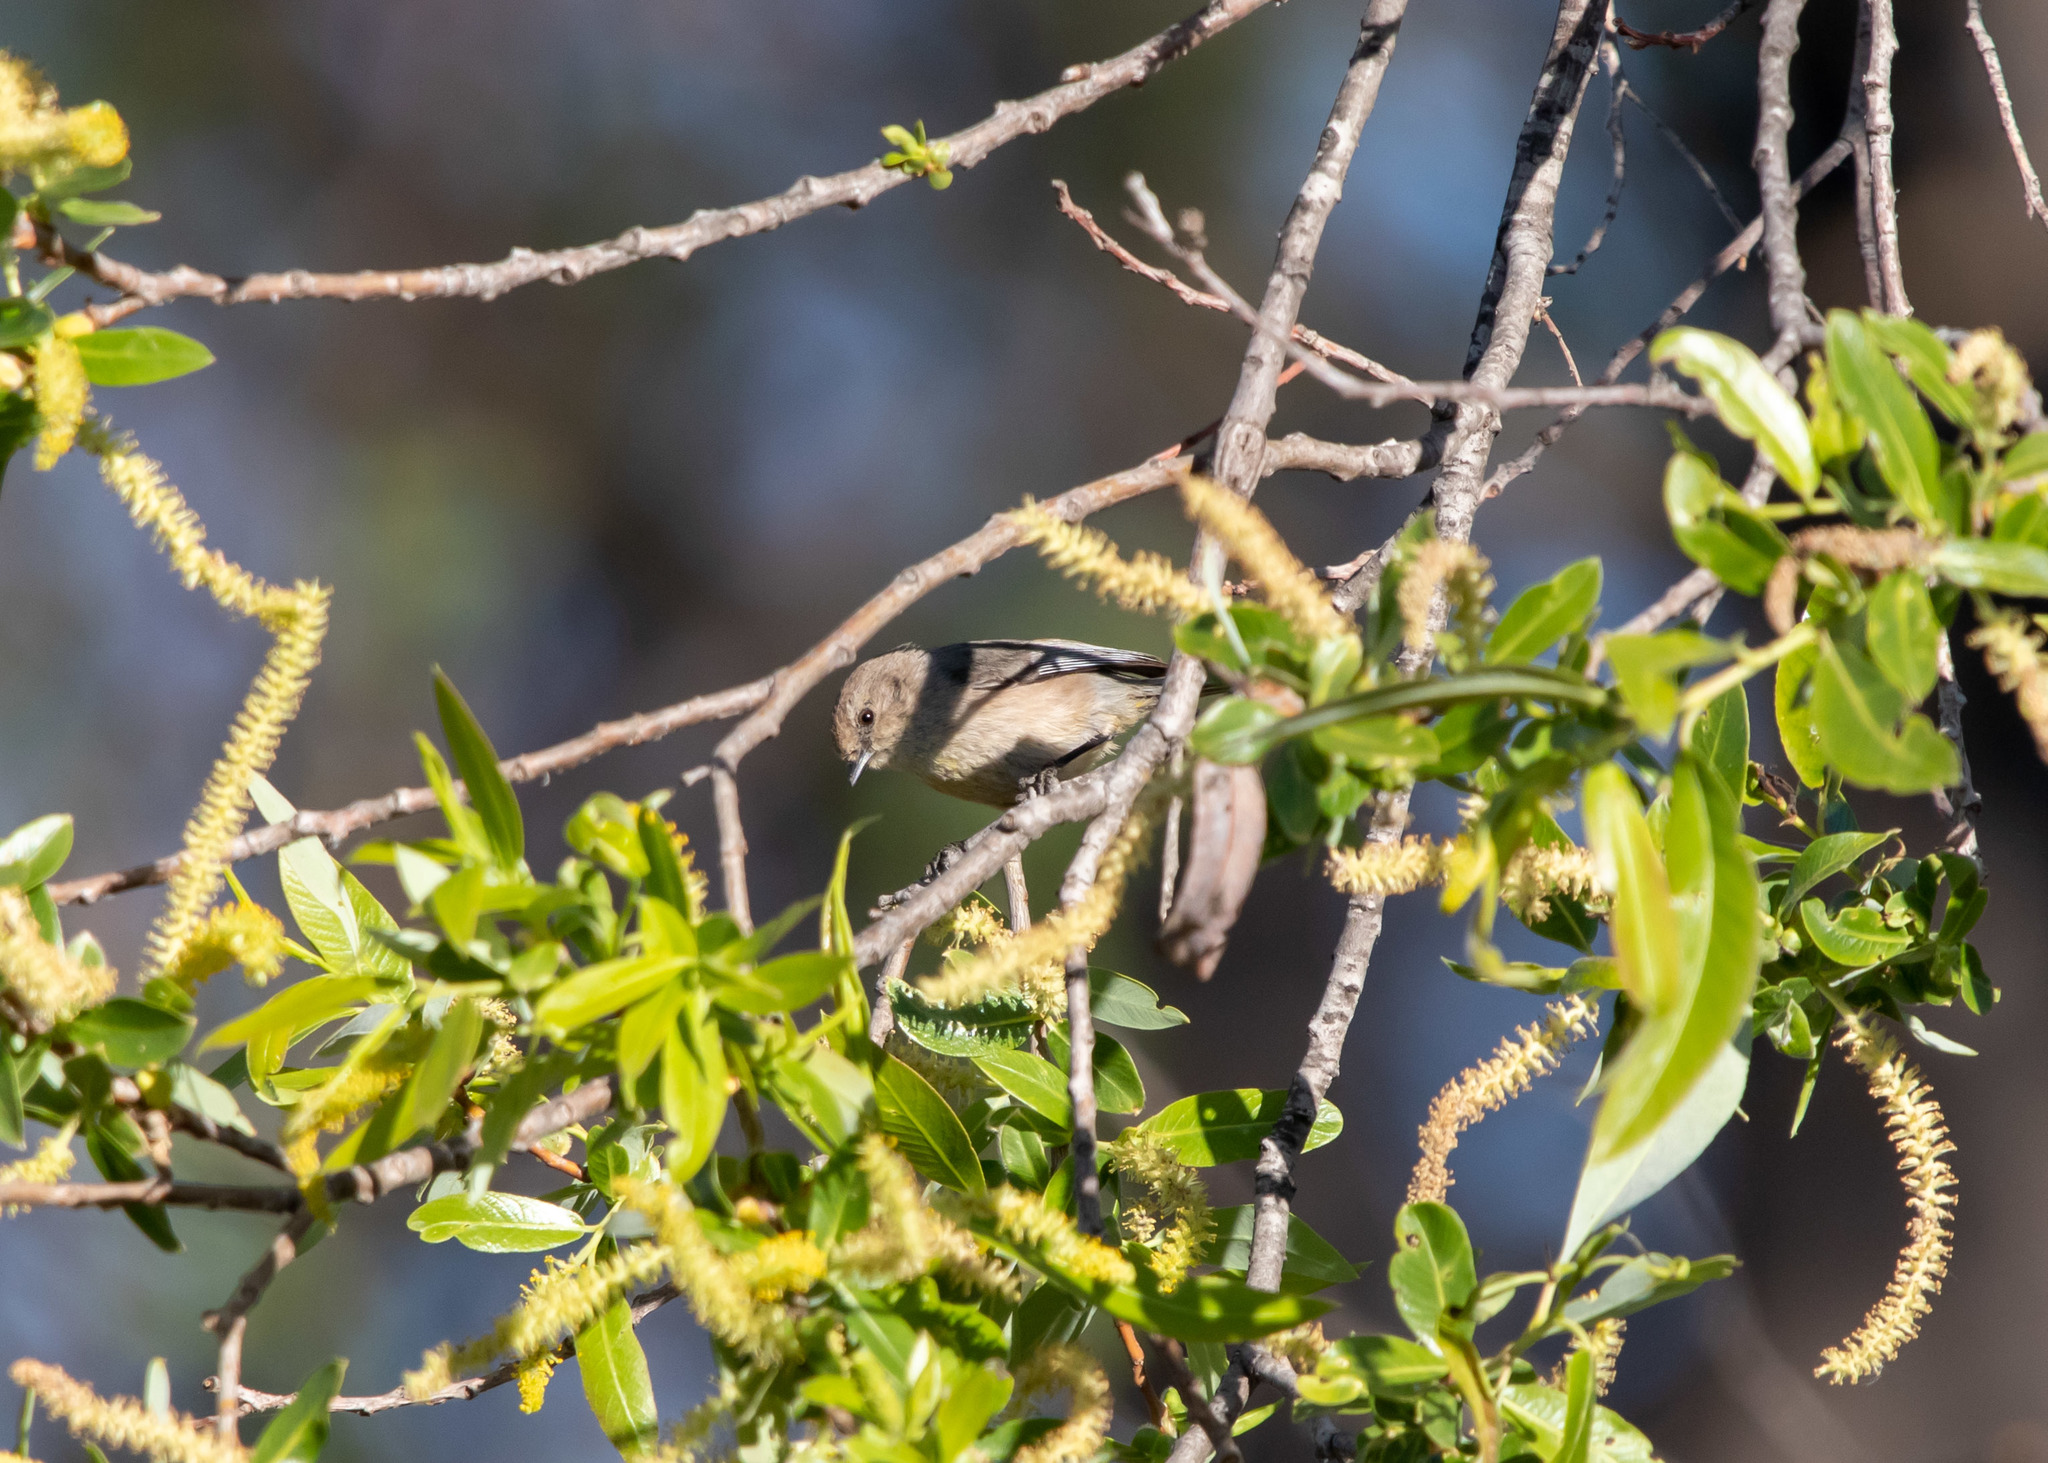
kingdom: Animalia
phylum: Chordata
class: Aves
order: Passeriformes
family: Aegithalidae
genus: Psaltriparus
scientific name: Psaltriparus minimus
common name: American bushtit
